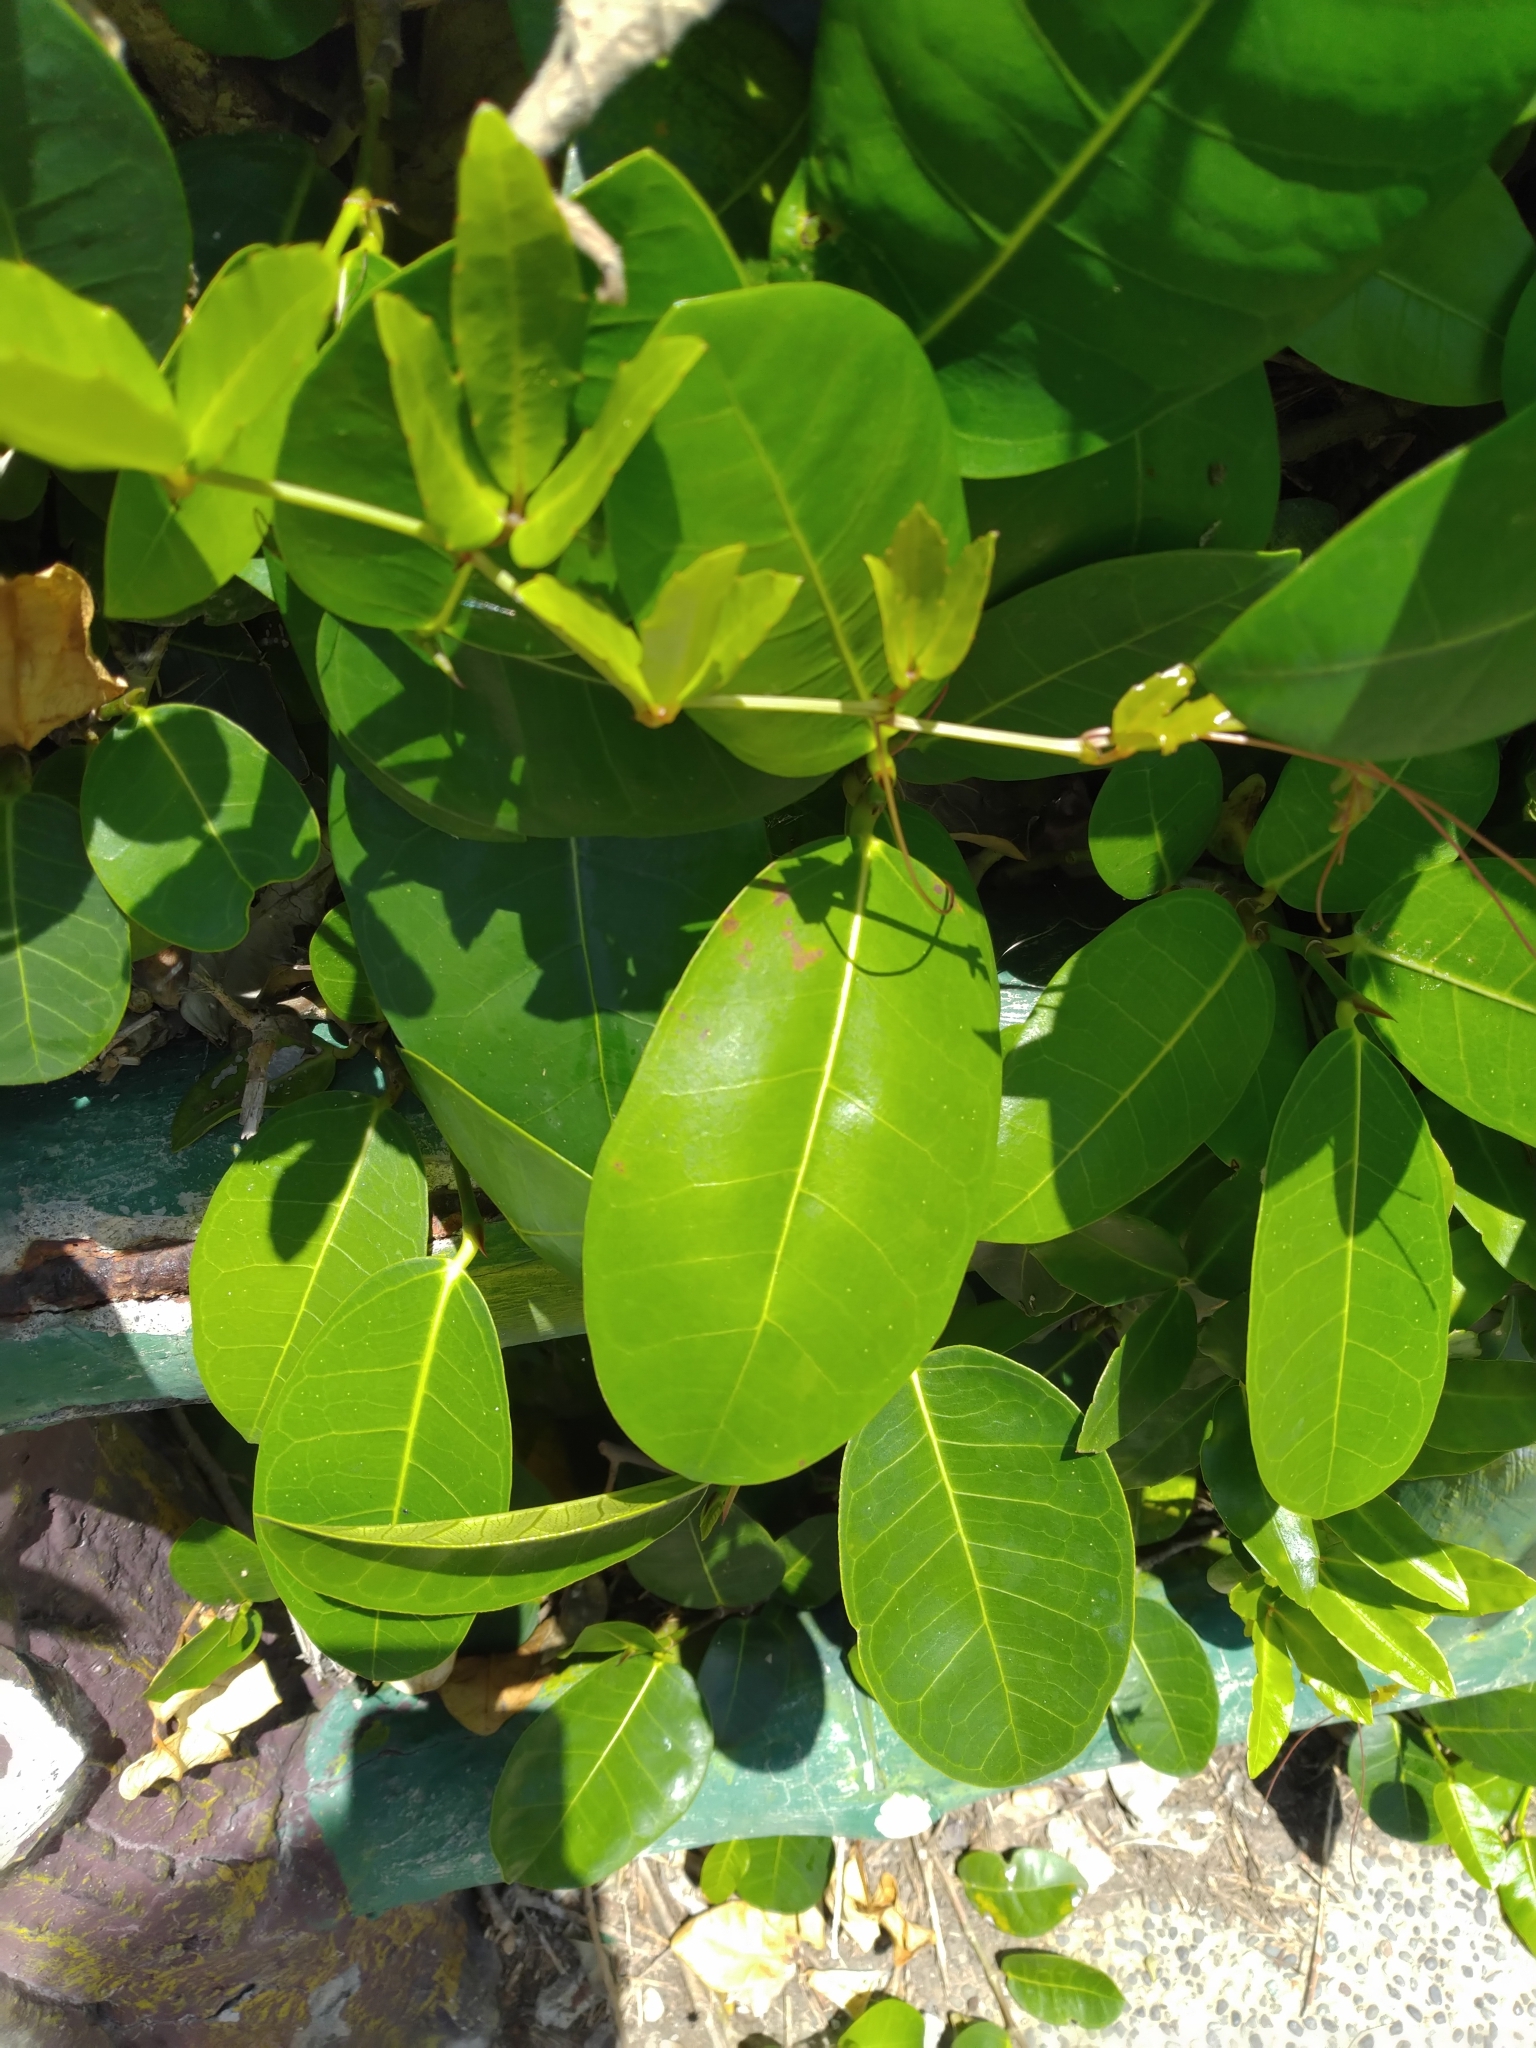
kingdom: Plantae
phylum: Tracheophyta
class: Magnoliopsida
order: Rosales
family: Moraceae
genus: Ficus
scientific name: Ficus tinctoria
